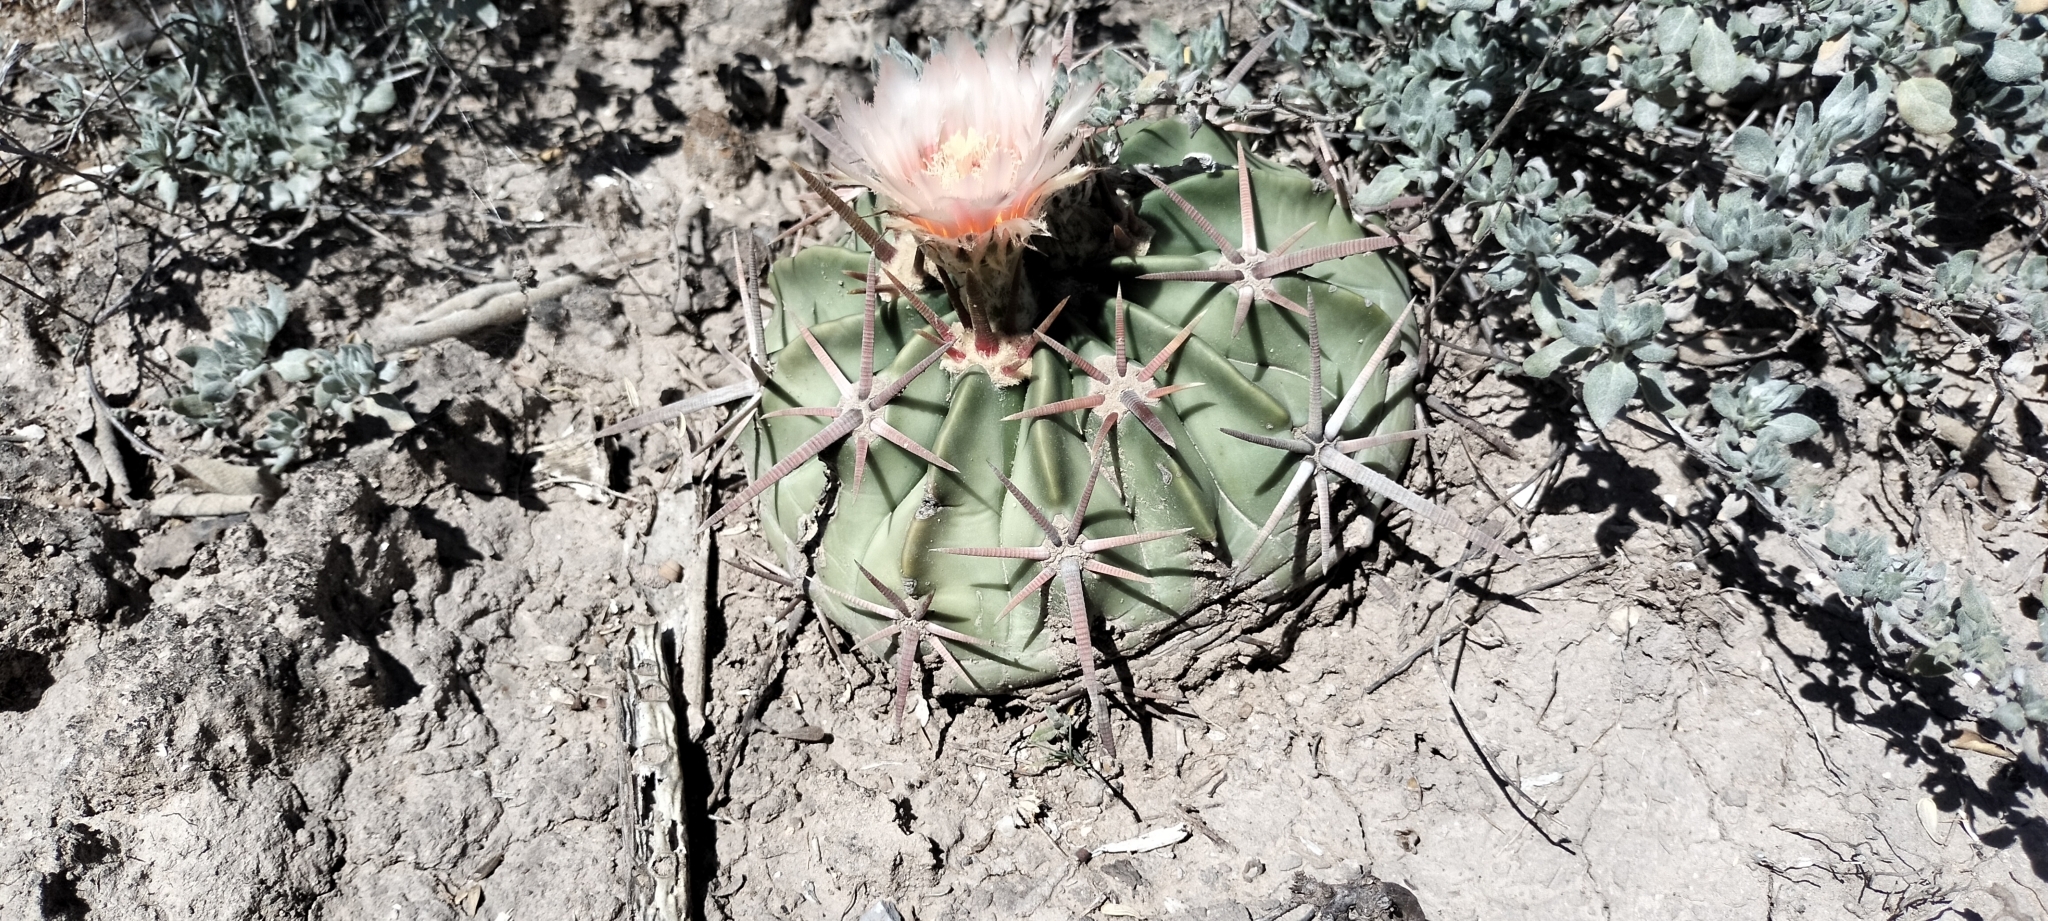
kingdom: Plantae
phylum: Tracheophyta
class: Magnoliopsida
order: Caryophyllales
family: Cactaceae
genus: Echinocactus
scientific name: Echinocactus texensis
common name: Devil's pincushion
